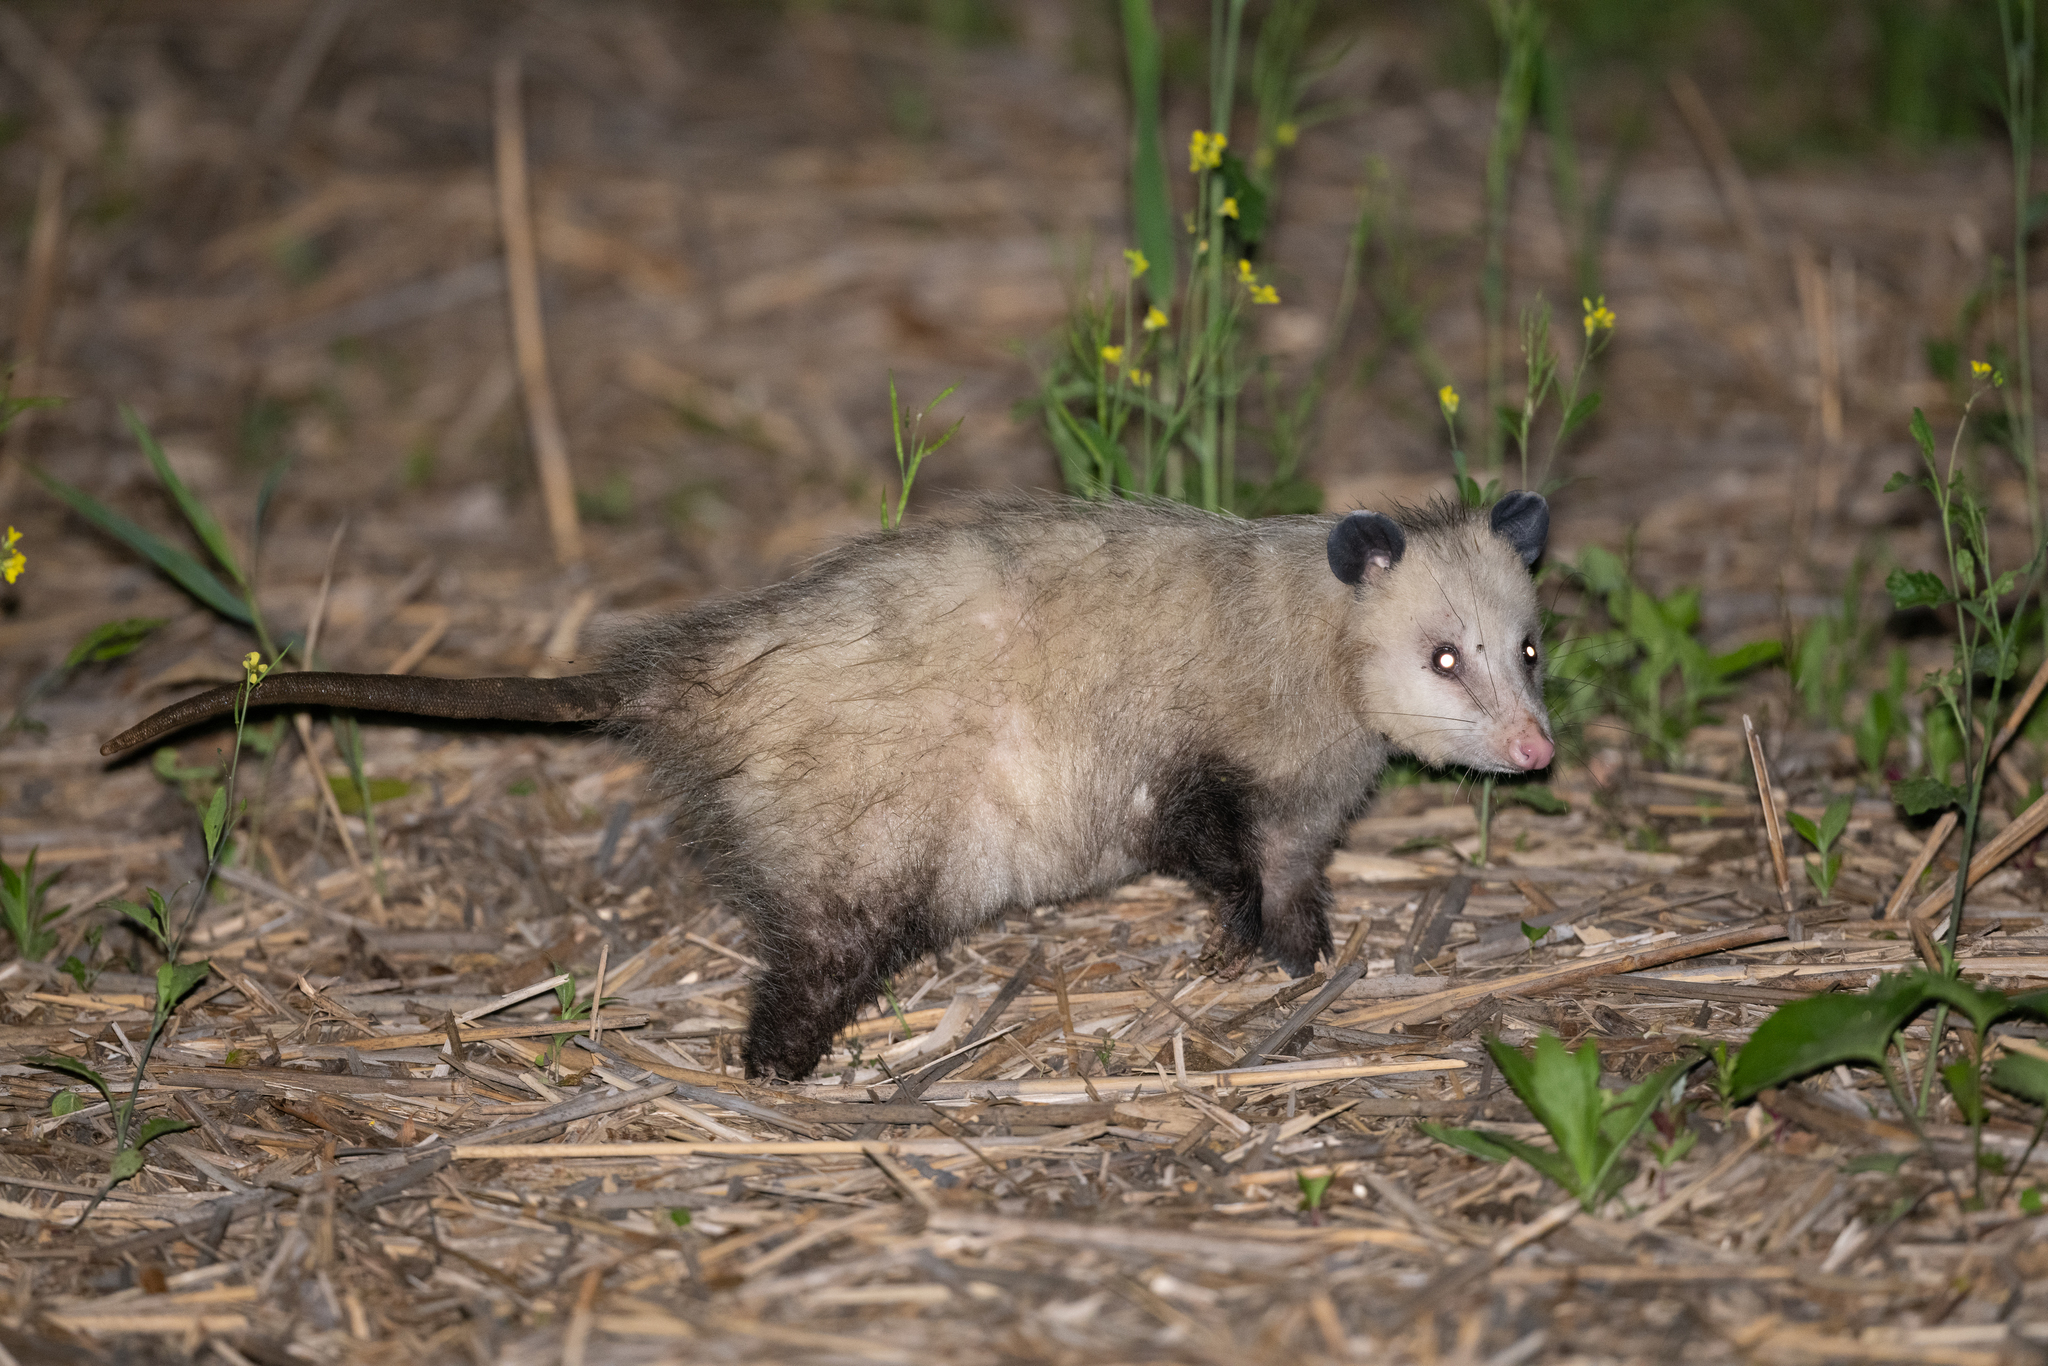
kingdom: Animalia
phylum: Chordata
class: Mammalia
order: Didelphimorphia
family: Didelphidae
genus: Didelphis
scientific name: Didelphis virginiana
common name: Virginia opossum
